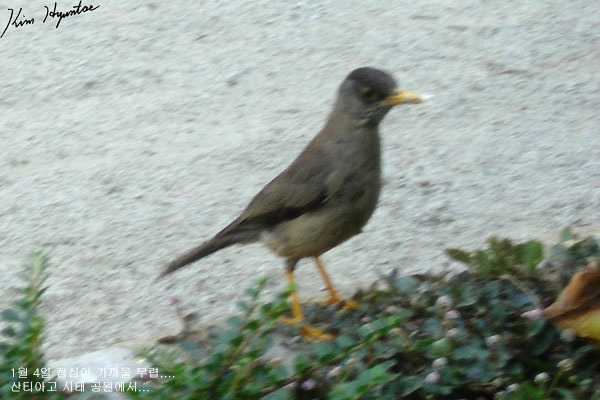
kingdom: Animalia
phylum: Chordata
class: Aves
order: Passeriformes
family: Turdidae
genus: Turdus
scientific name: Turdus falcklandii
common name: Austral thrush
